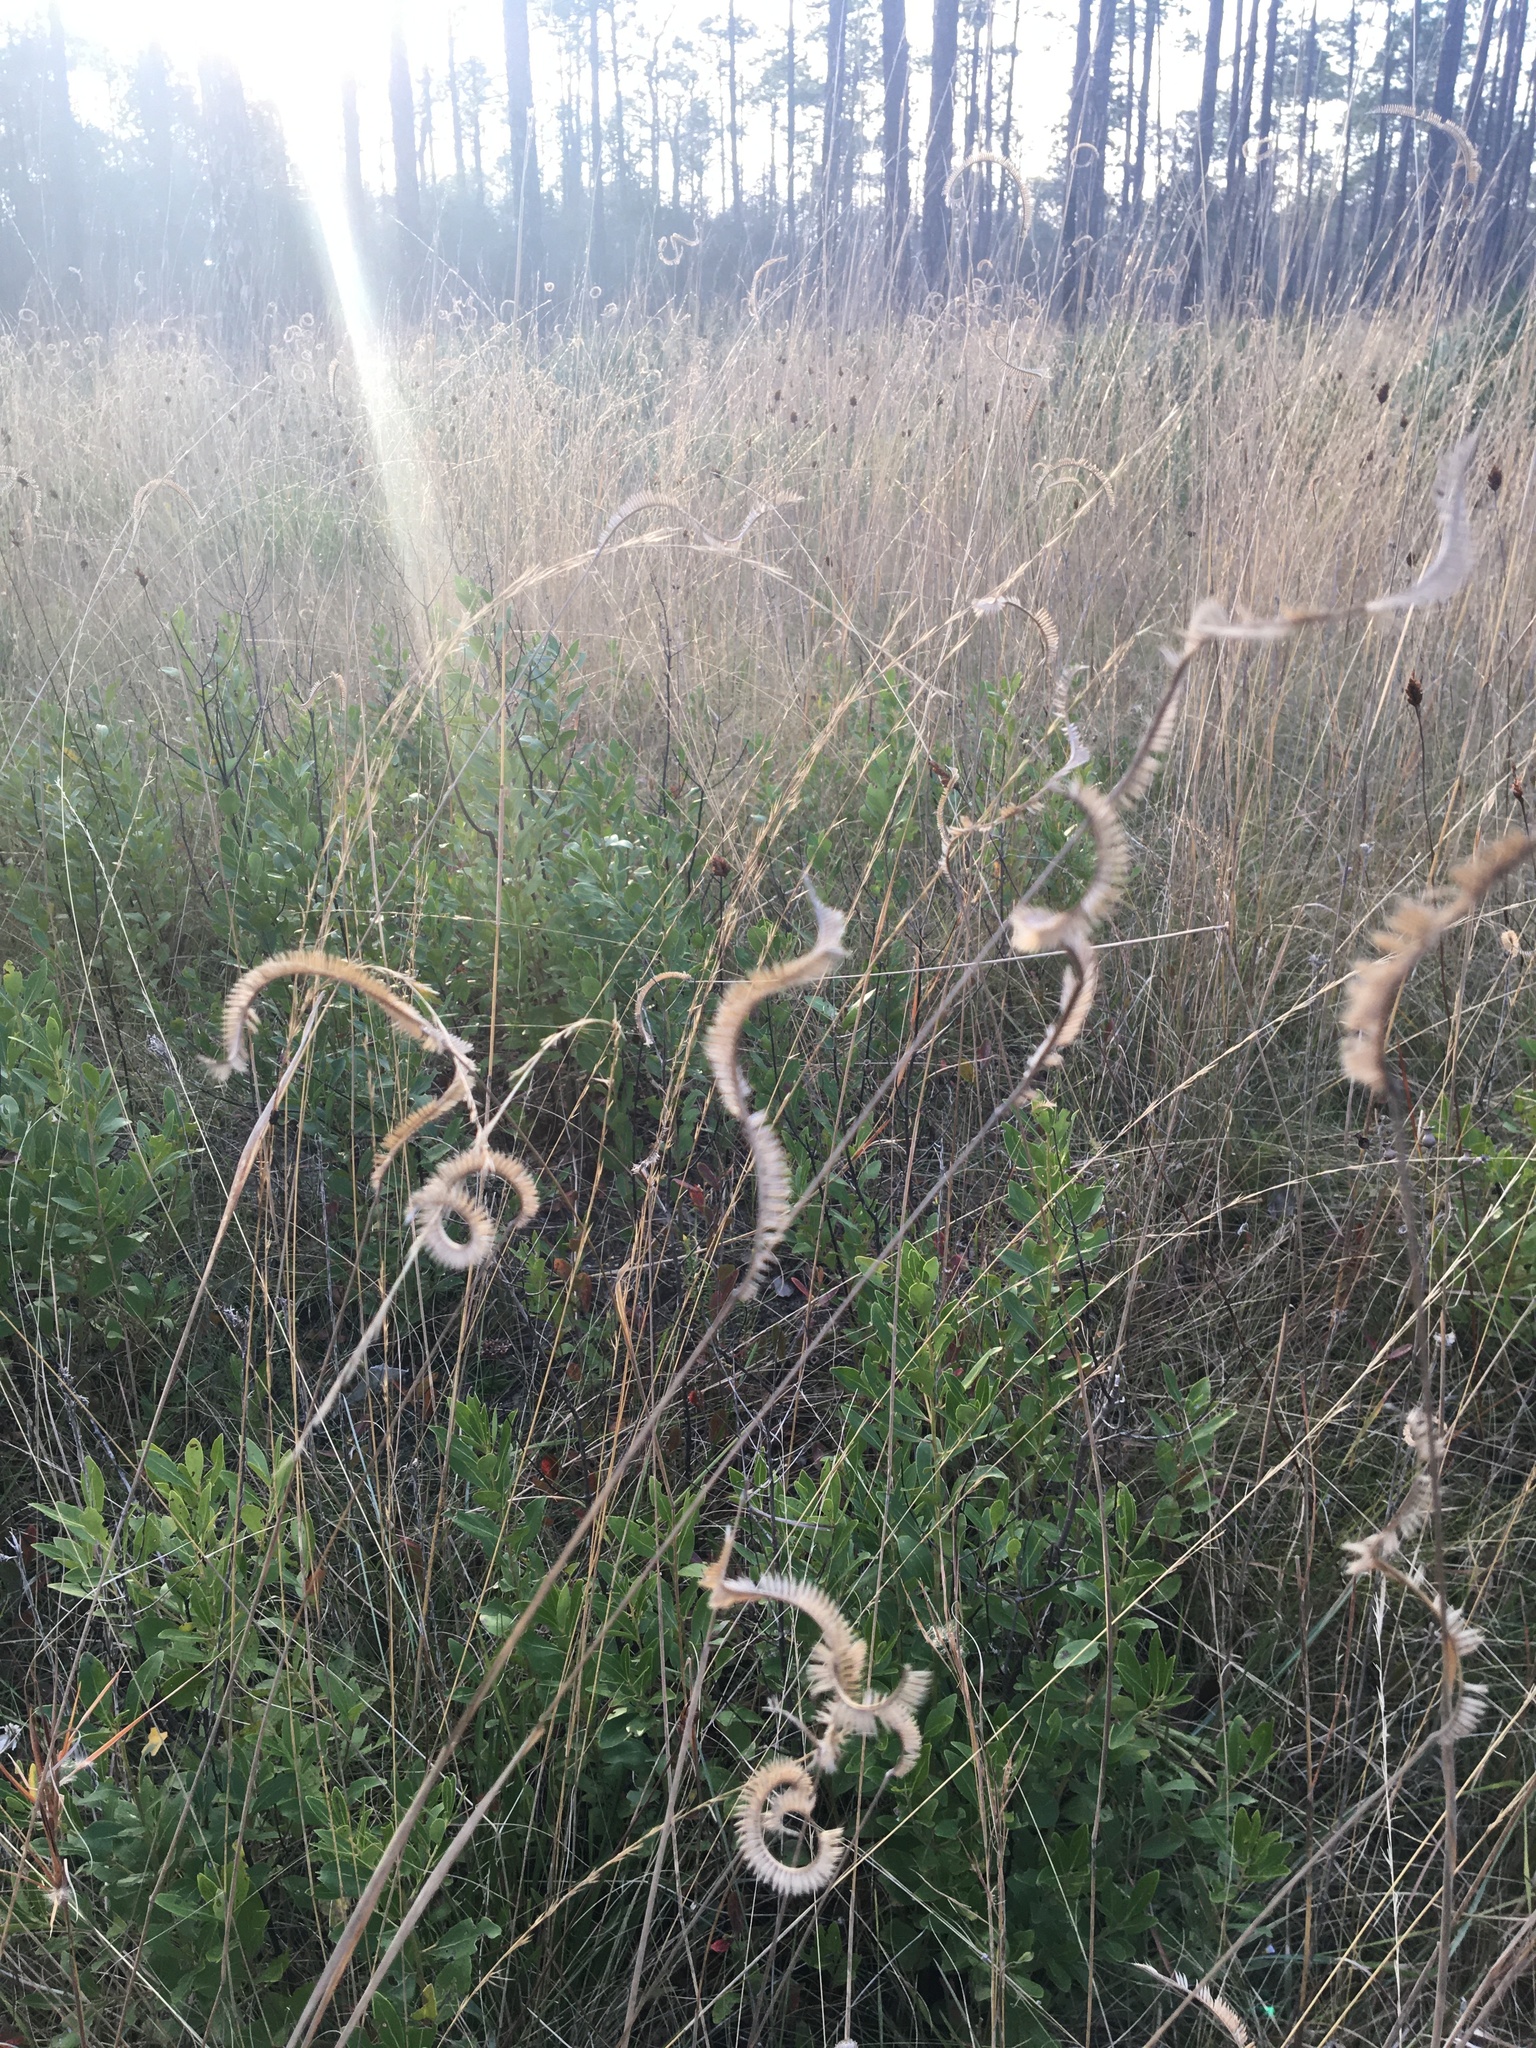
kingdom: Plantae
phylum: Tracheophyta
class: Liliopsida
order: Poales
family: Poaceae
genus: Ctenium
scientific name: Ctenium aromaticum
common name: Toothache grass
